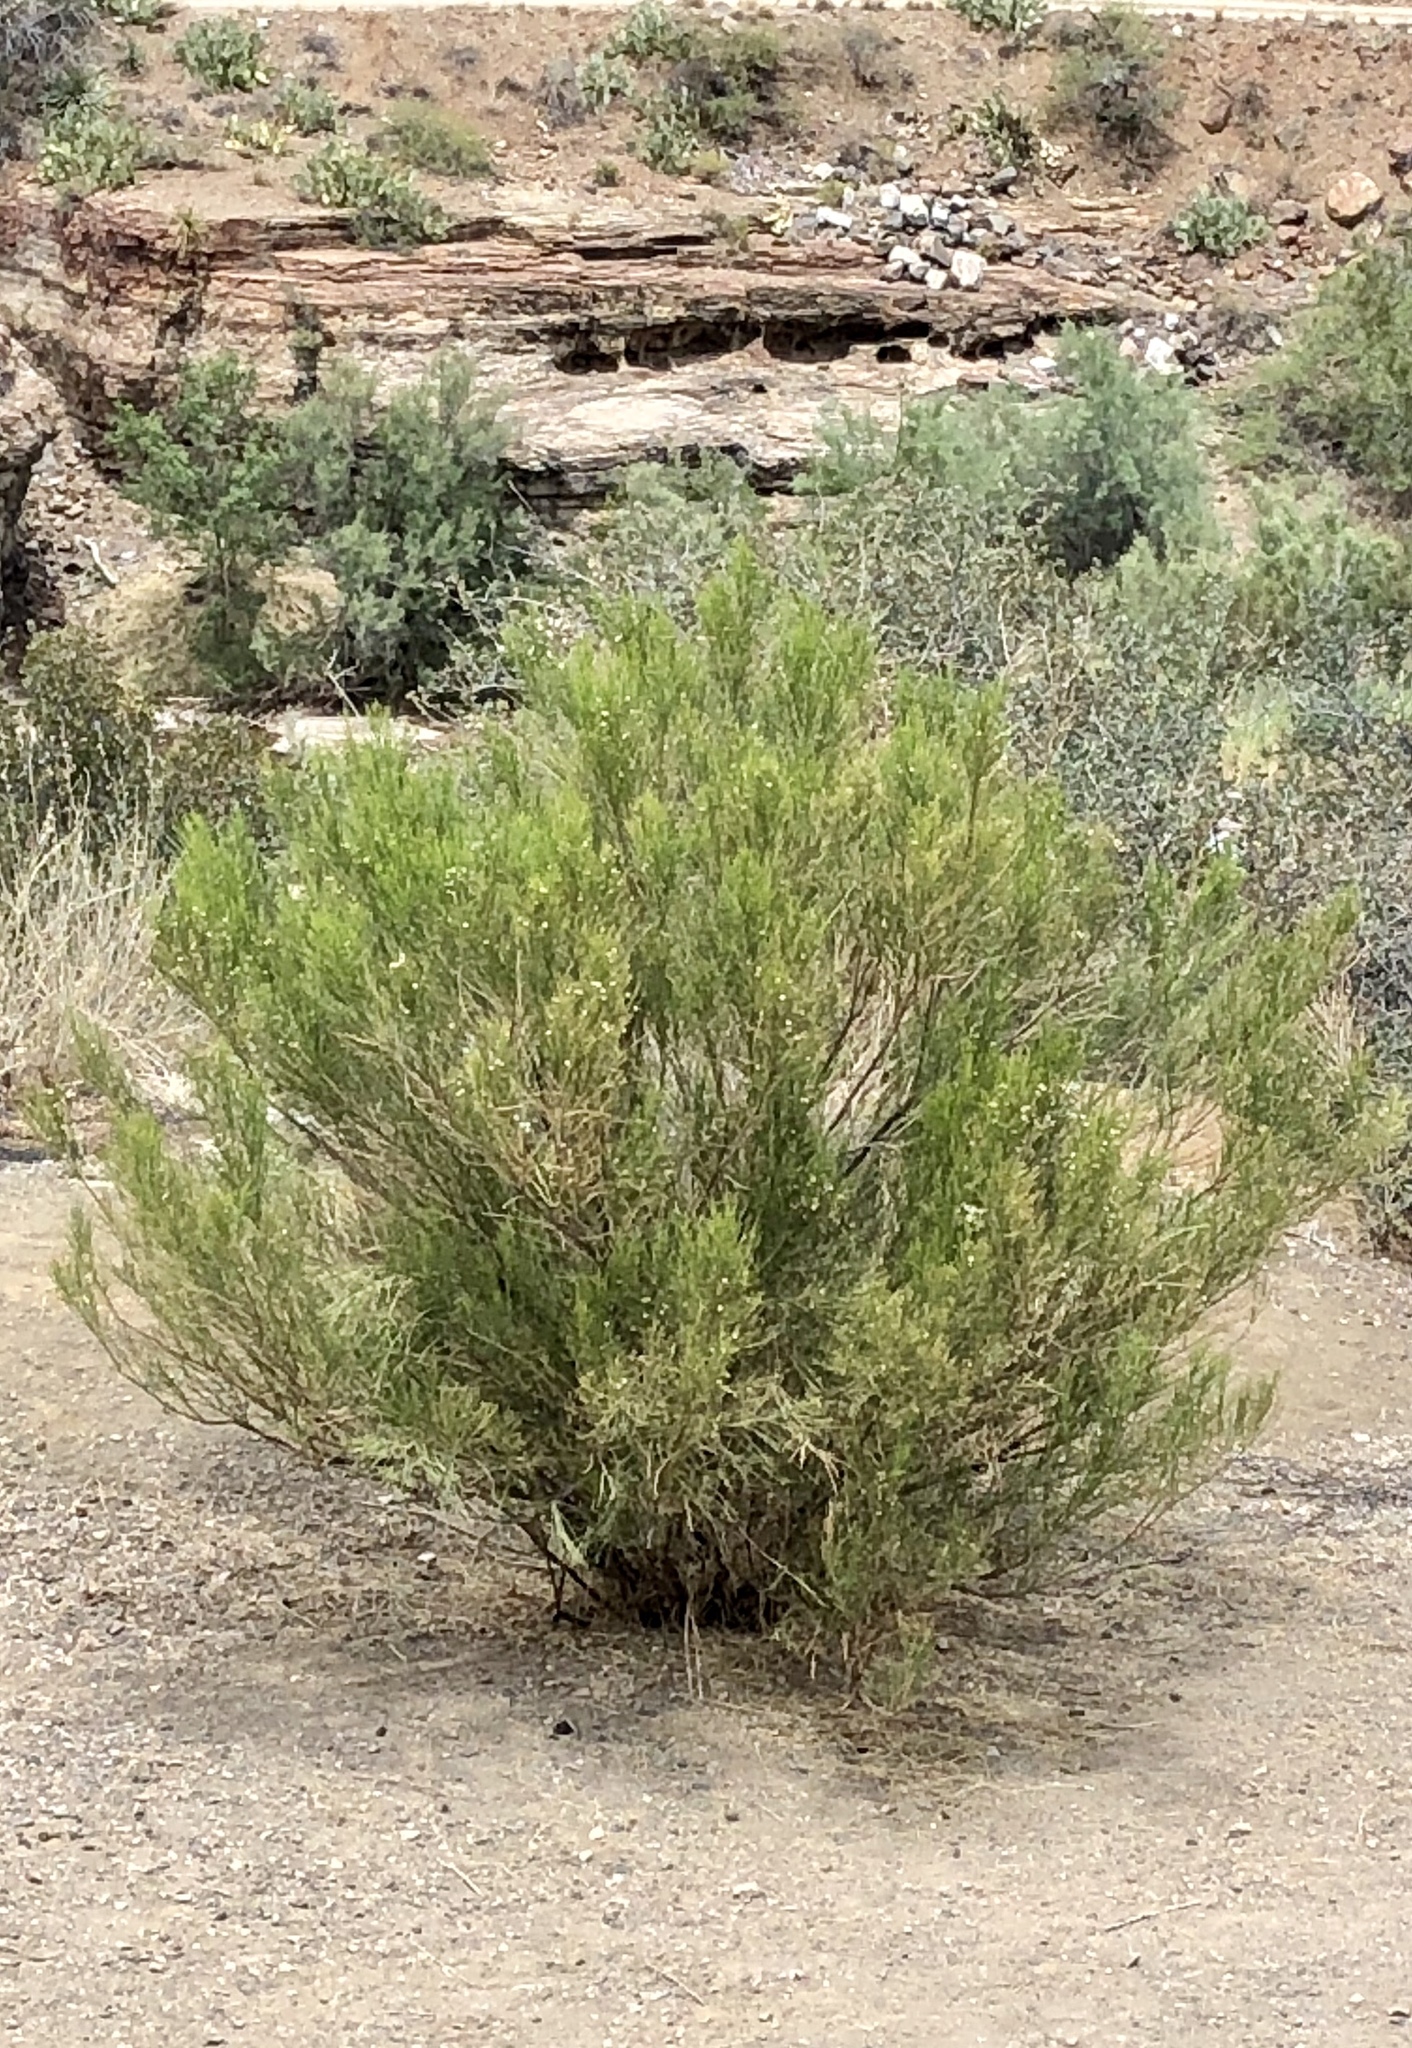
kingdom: Plantae
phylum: Tracheophyta
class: Magnoliopsida
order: Asterales
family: Asteraceae
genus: Baccharis
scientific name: Baccharis sarothroides
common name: Desert-broom
